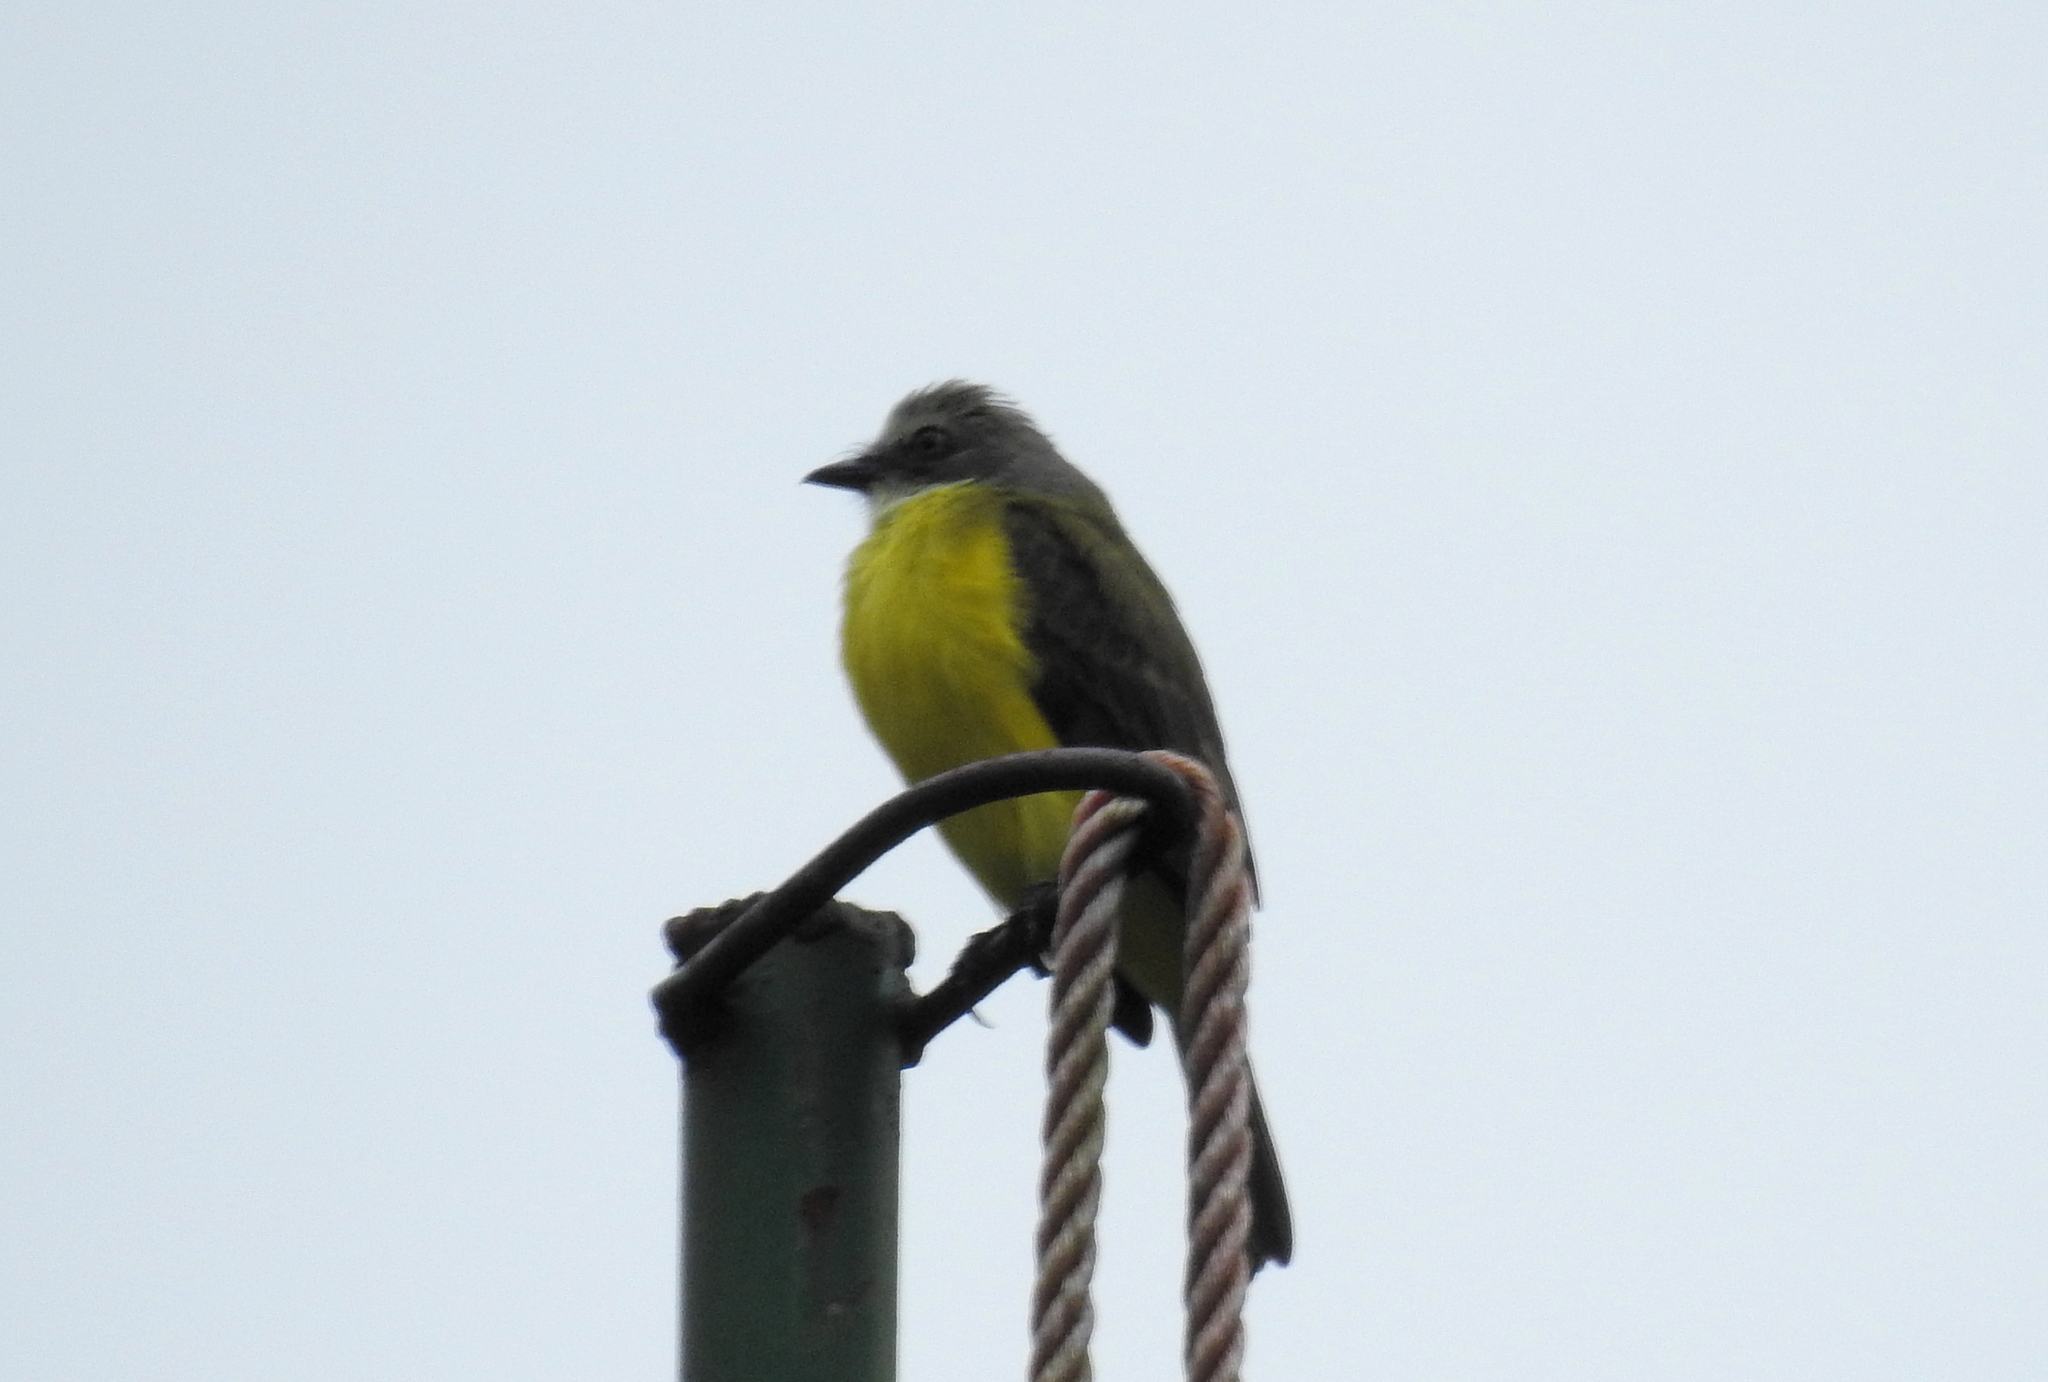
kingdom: Animalia
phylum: Chordata
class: Aves
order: Passeriformes
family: Tyrannidae
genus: Myiozetetes
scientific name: Myiozetetes granadensis
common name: Gray-capped flycatcher
